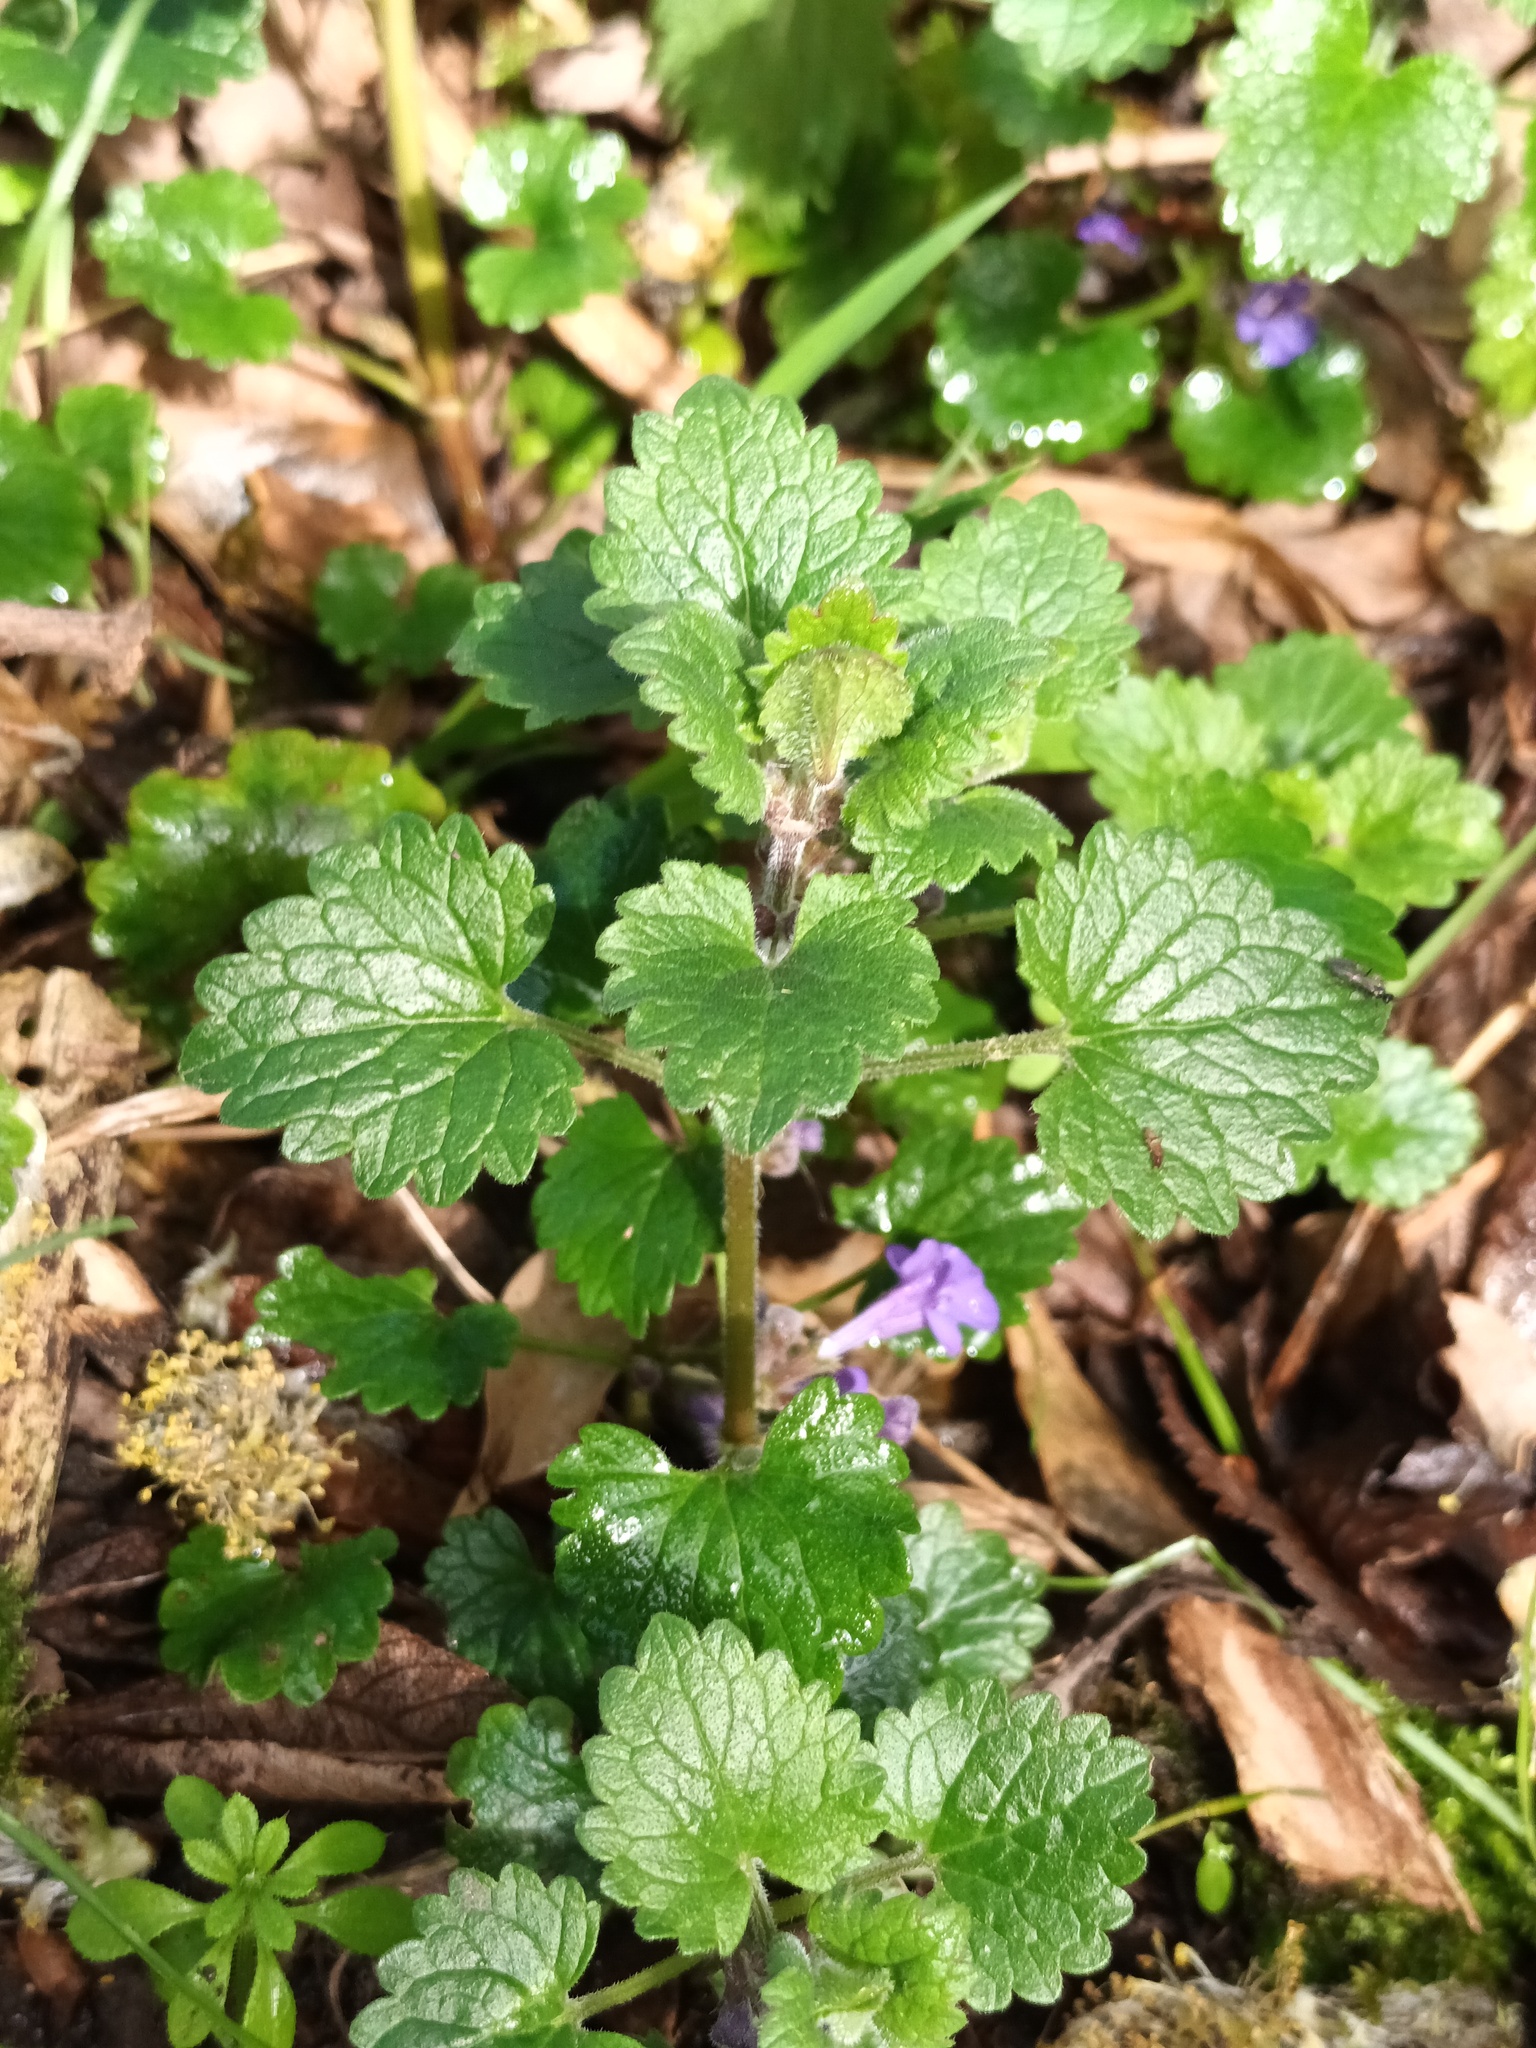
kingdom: Plantae
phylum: Tracheophyta
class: Magnoliopsida
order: Lamiales
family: Lamiaceae
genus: Glechoma
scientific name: Glechoma hederacea
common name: Ground ivy
